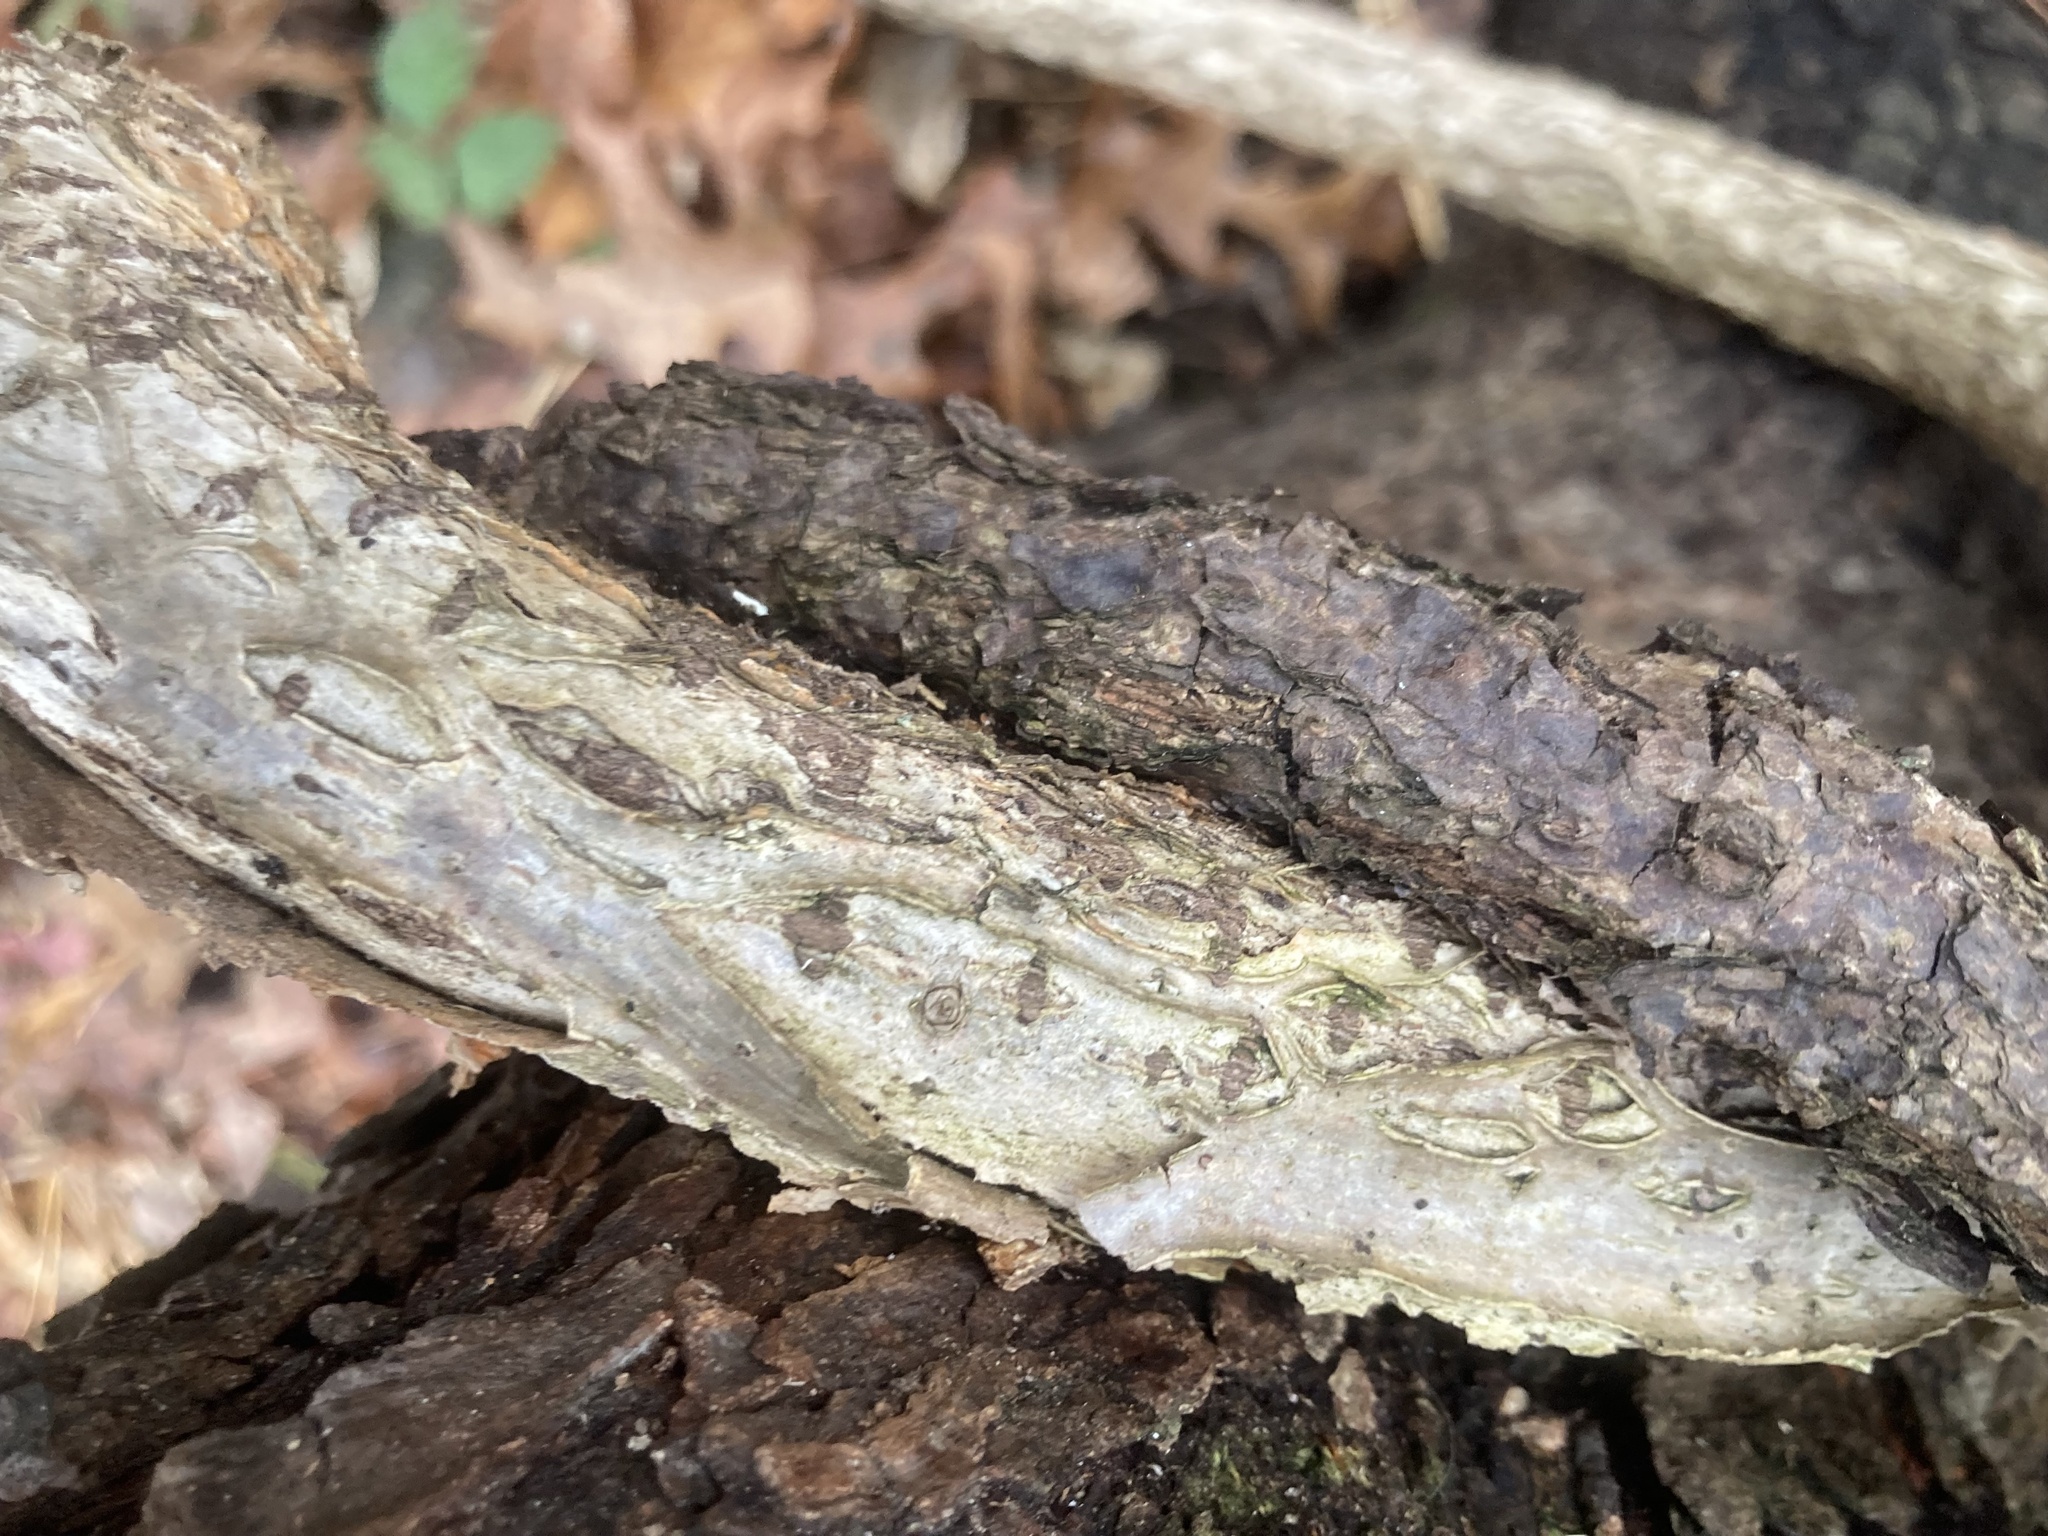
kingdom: Plantae
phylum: Tracheophyta
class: Magnoliopsida
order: Celastrales
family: Celastraceae
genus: Celastrus
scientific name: Celastrus orbiculatus
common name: Oriental bittersweet
